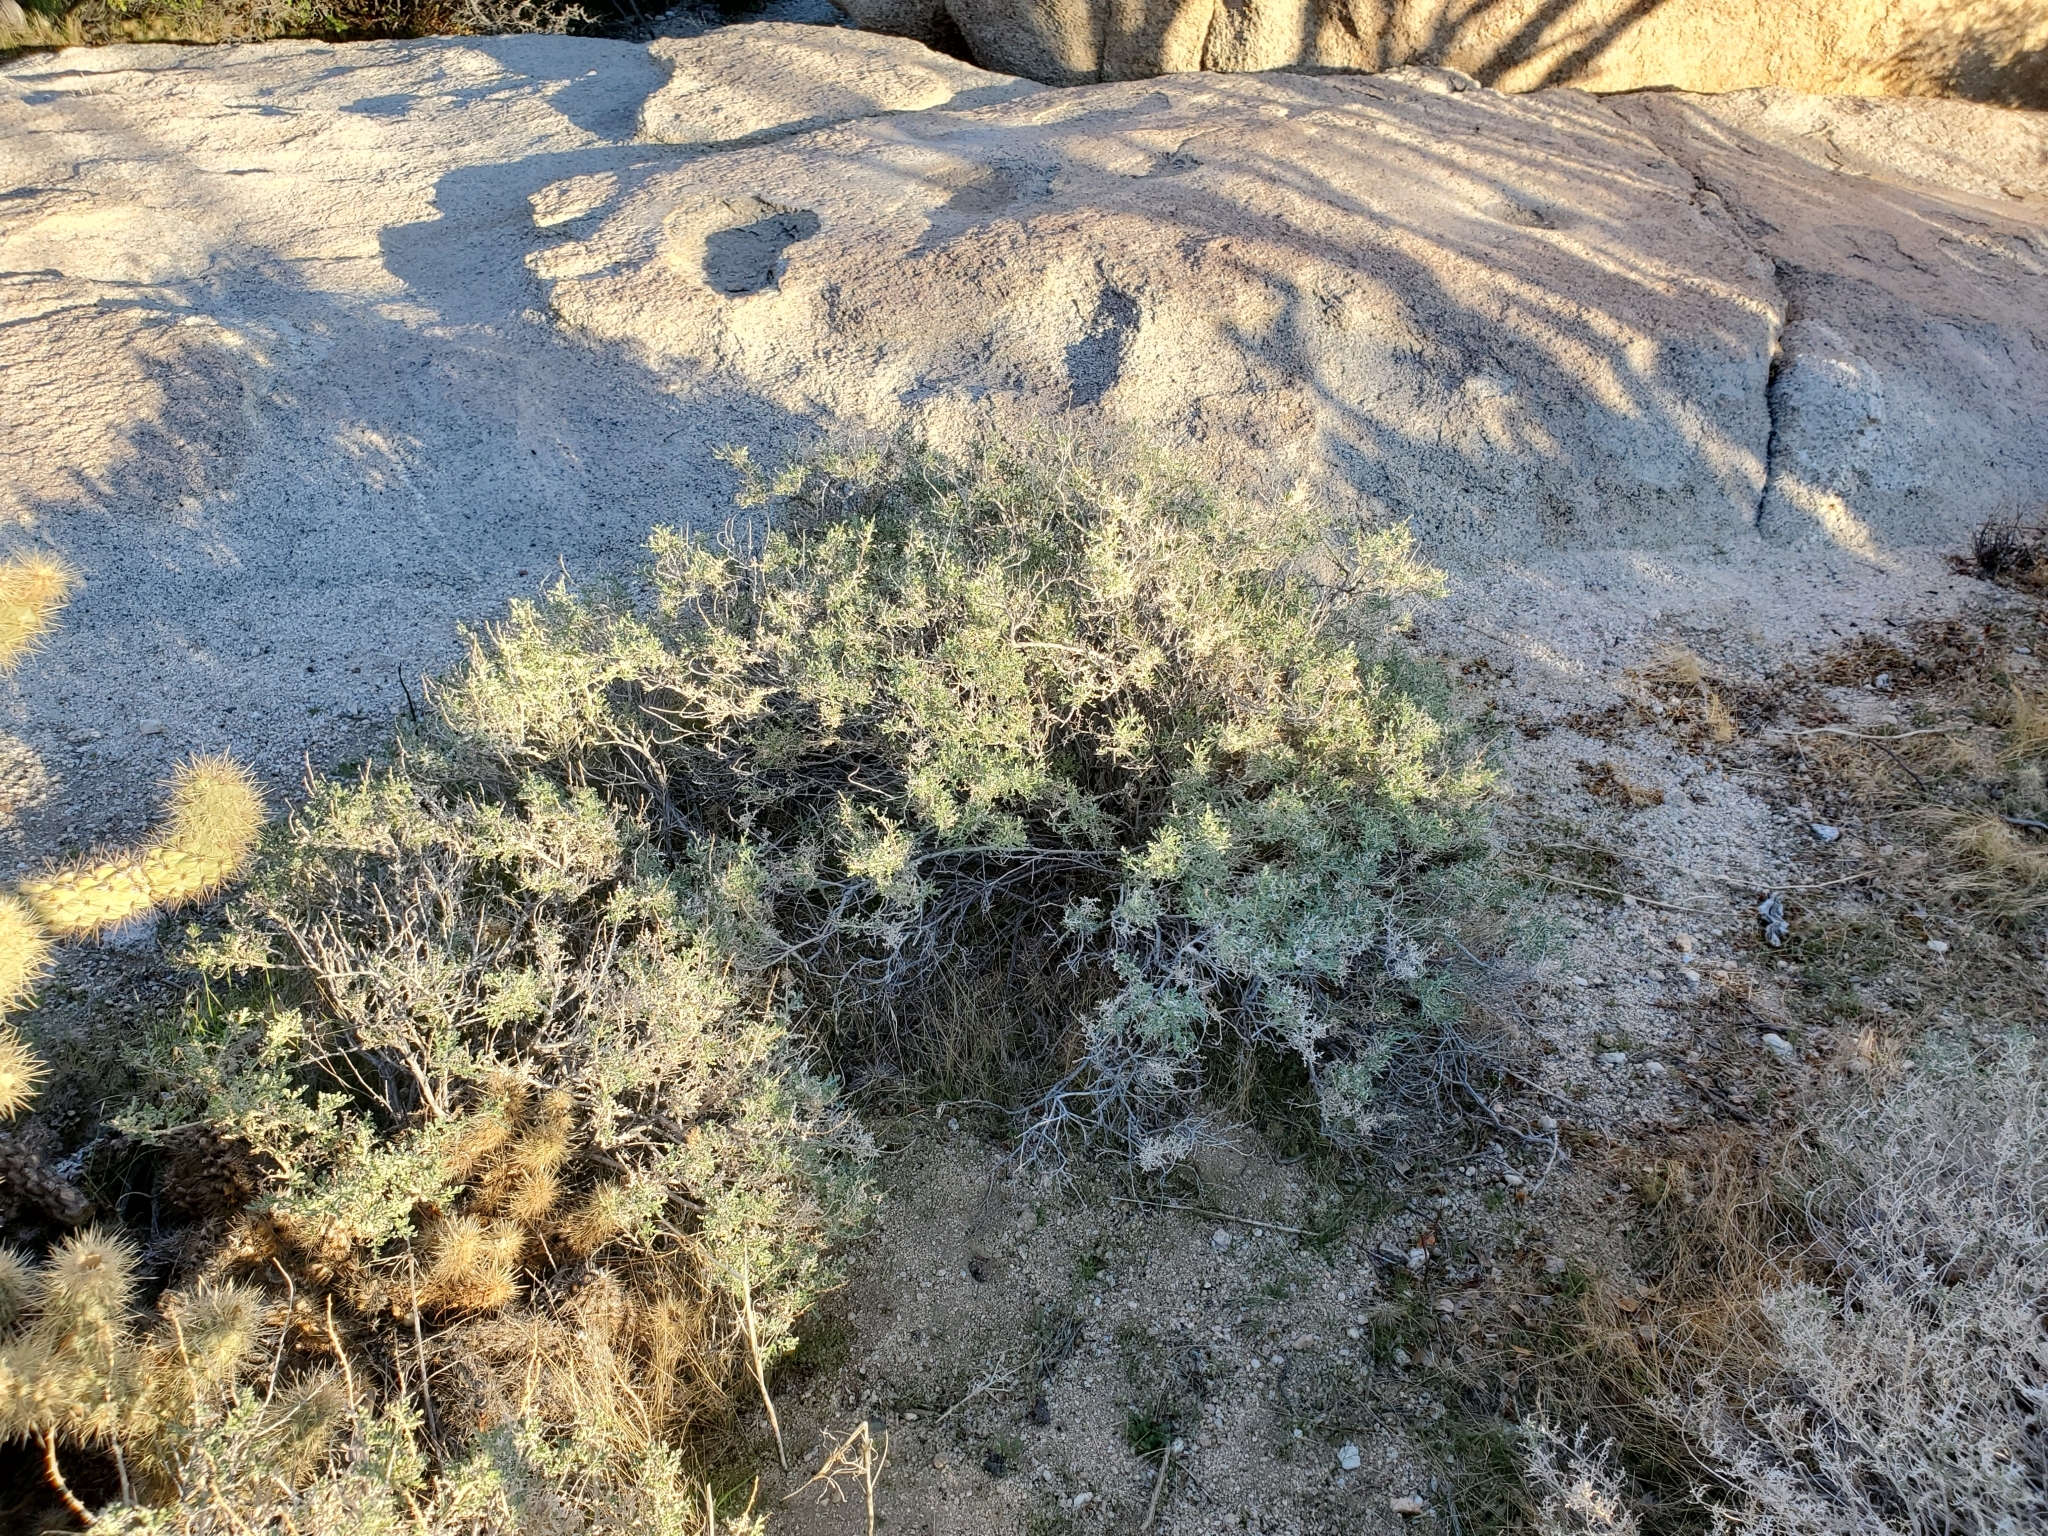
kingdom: Plantae
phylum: Tracheophyta
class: Magnoliopsida
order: Asterales
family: Asteraceae
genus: Ambrosia
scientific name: Ambrosia dumosa
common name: Bur-sage
